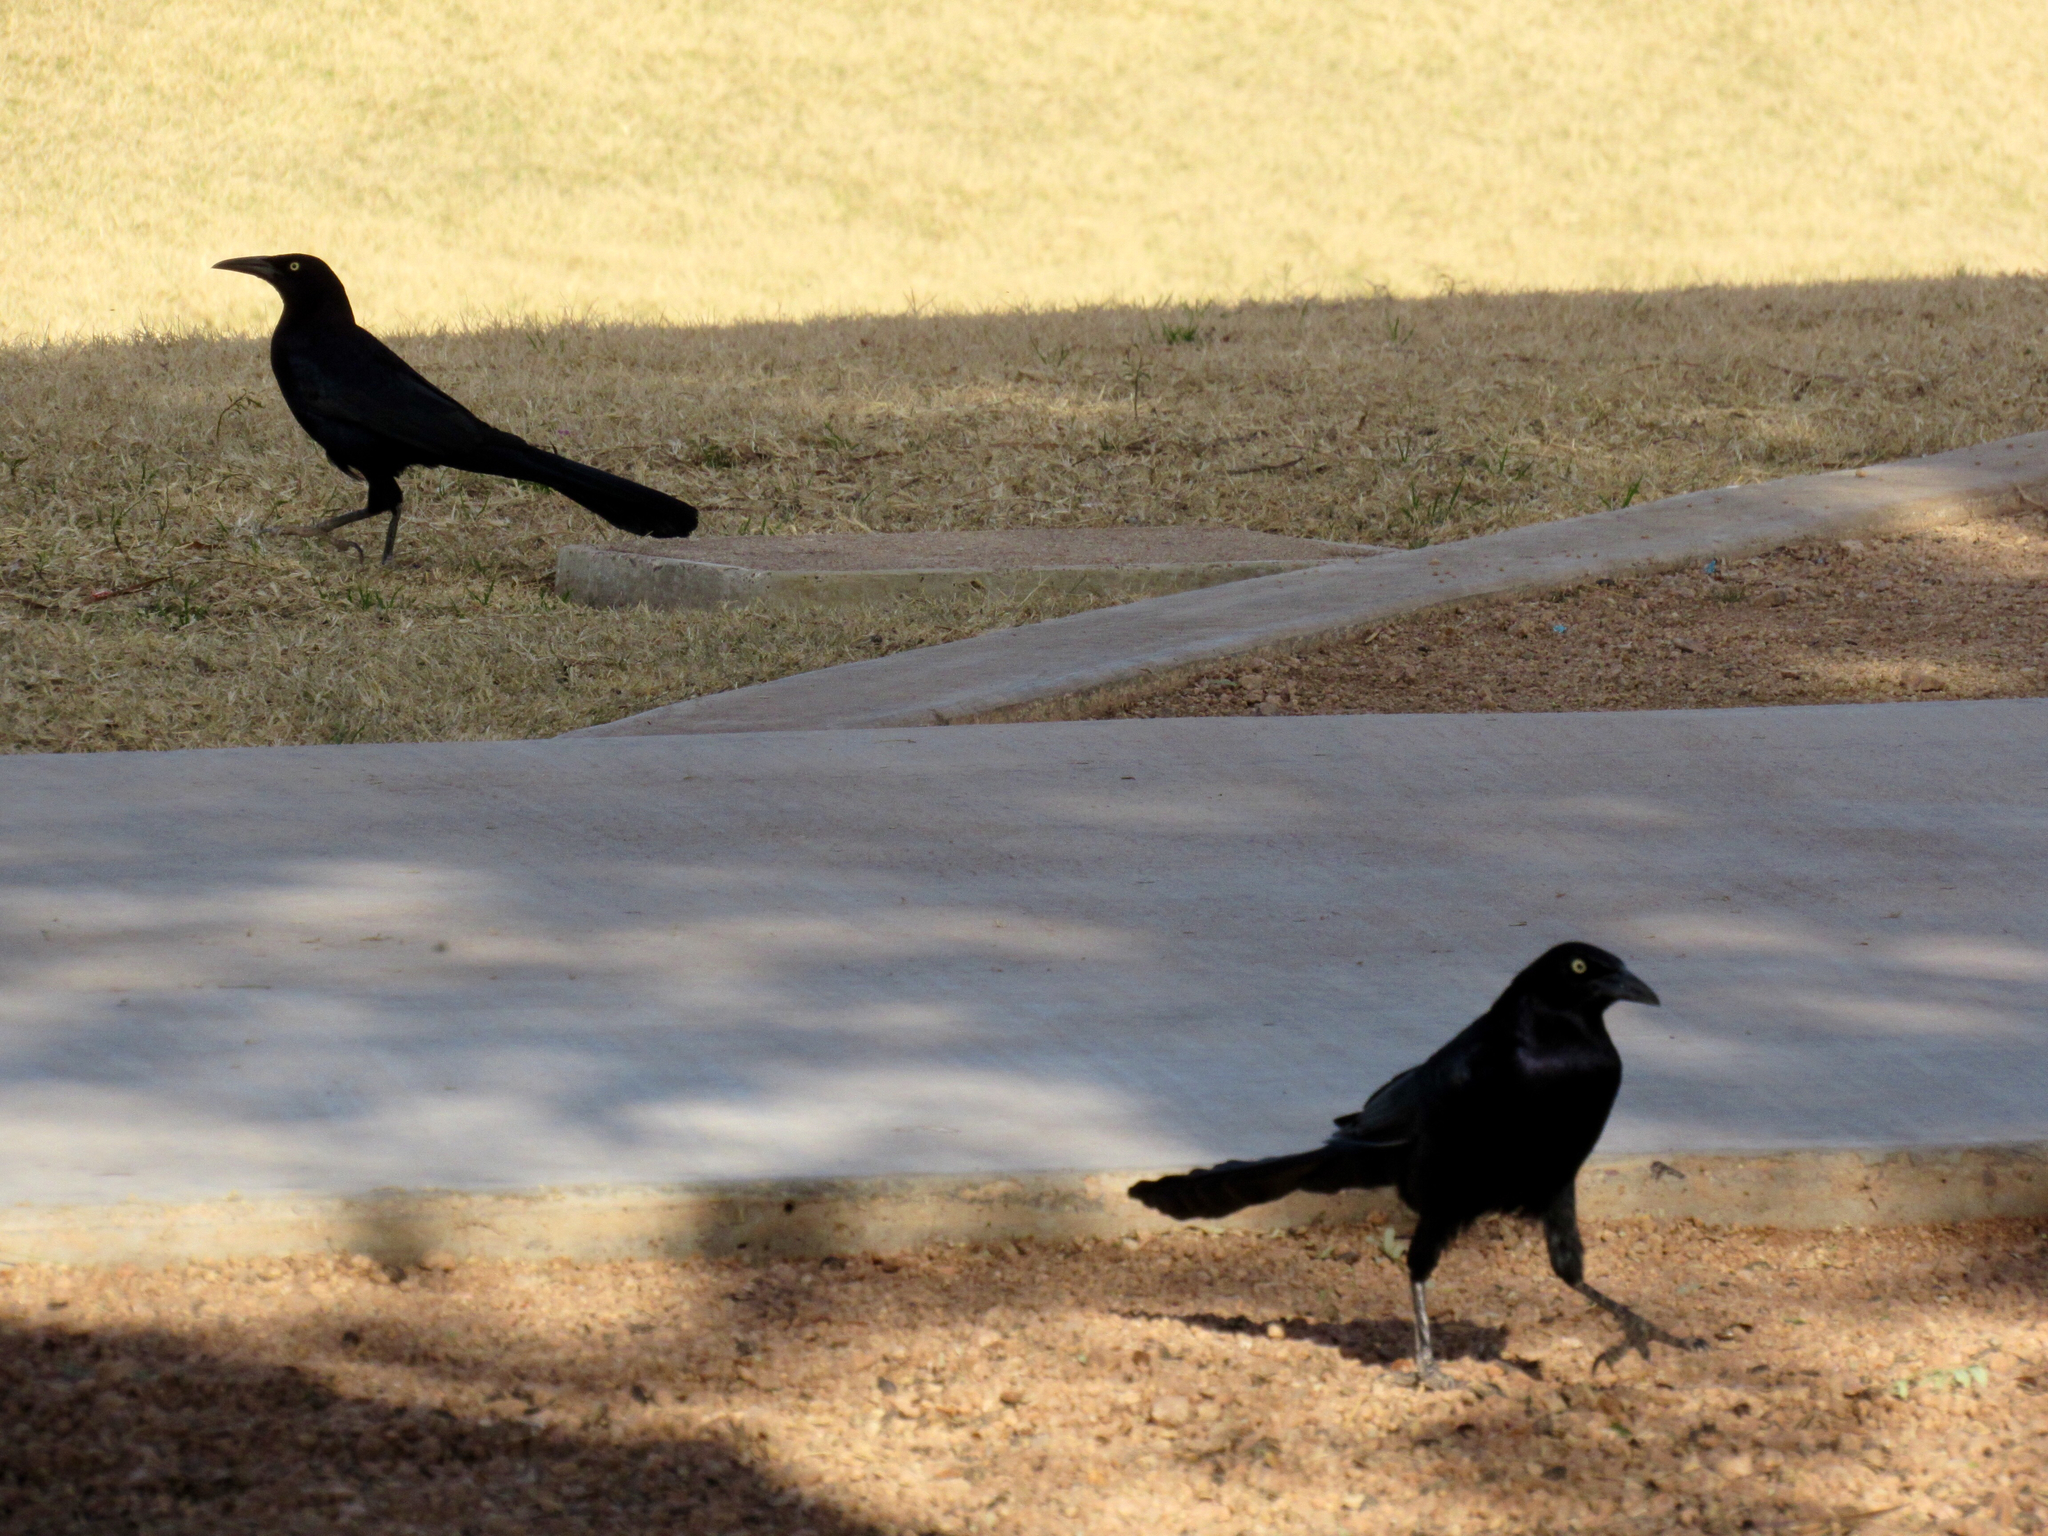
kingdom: Animalia
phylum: Chordata
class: Aves
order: Passeriformes
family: Icteridae
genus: Quiscalus
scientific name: Quiscalus mexicanus
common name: Great-tailed grackle
